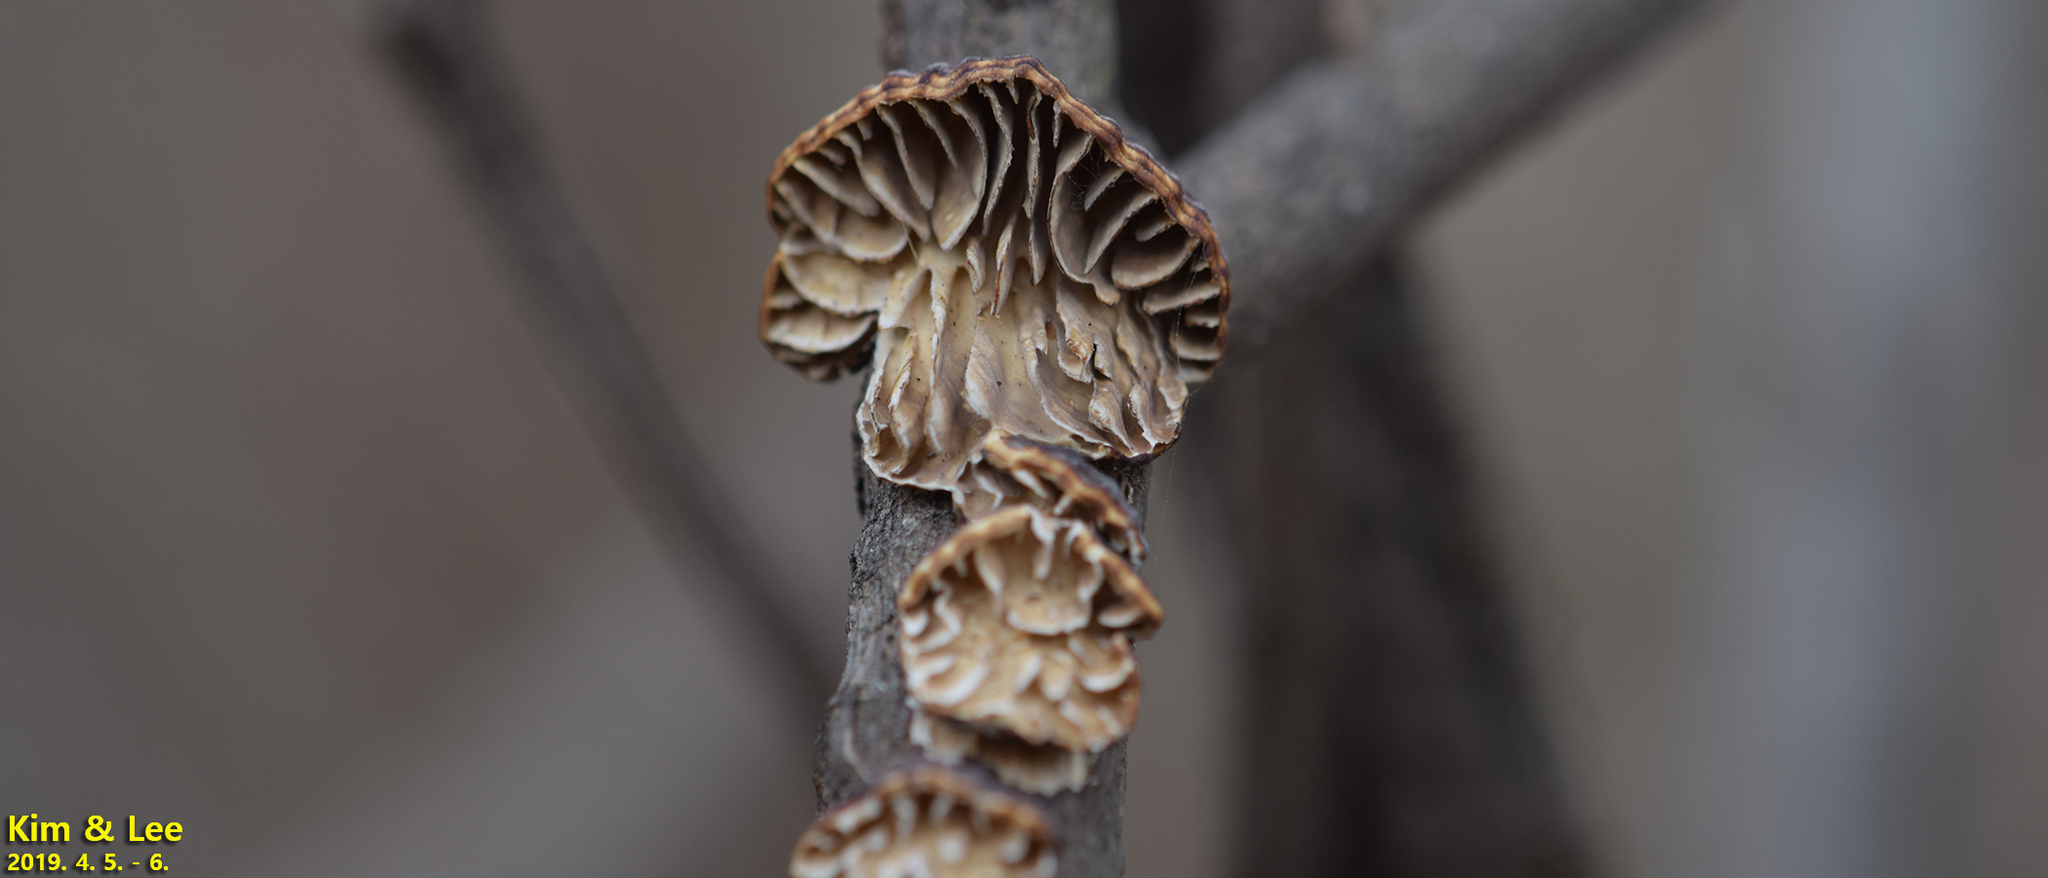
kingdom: Fungi
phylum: Basidiomycota
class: Agaricomycetes
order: Polyporales
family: Polyporaceae
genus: Lenzites
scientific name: Lenzites styracinus
